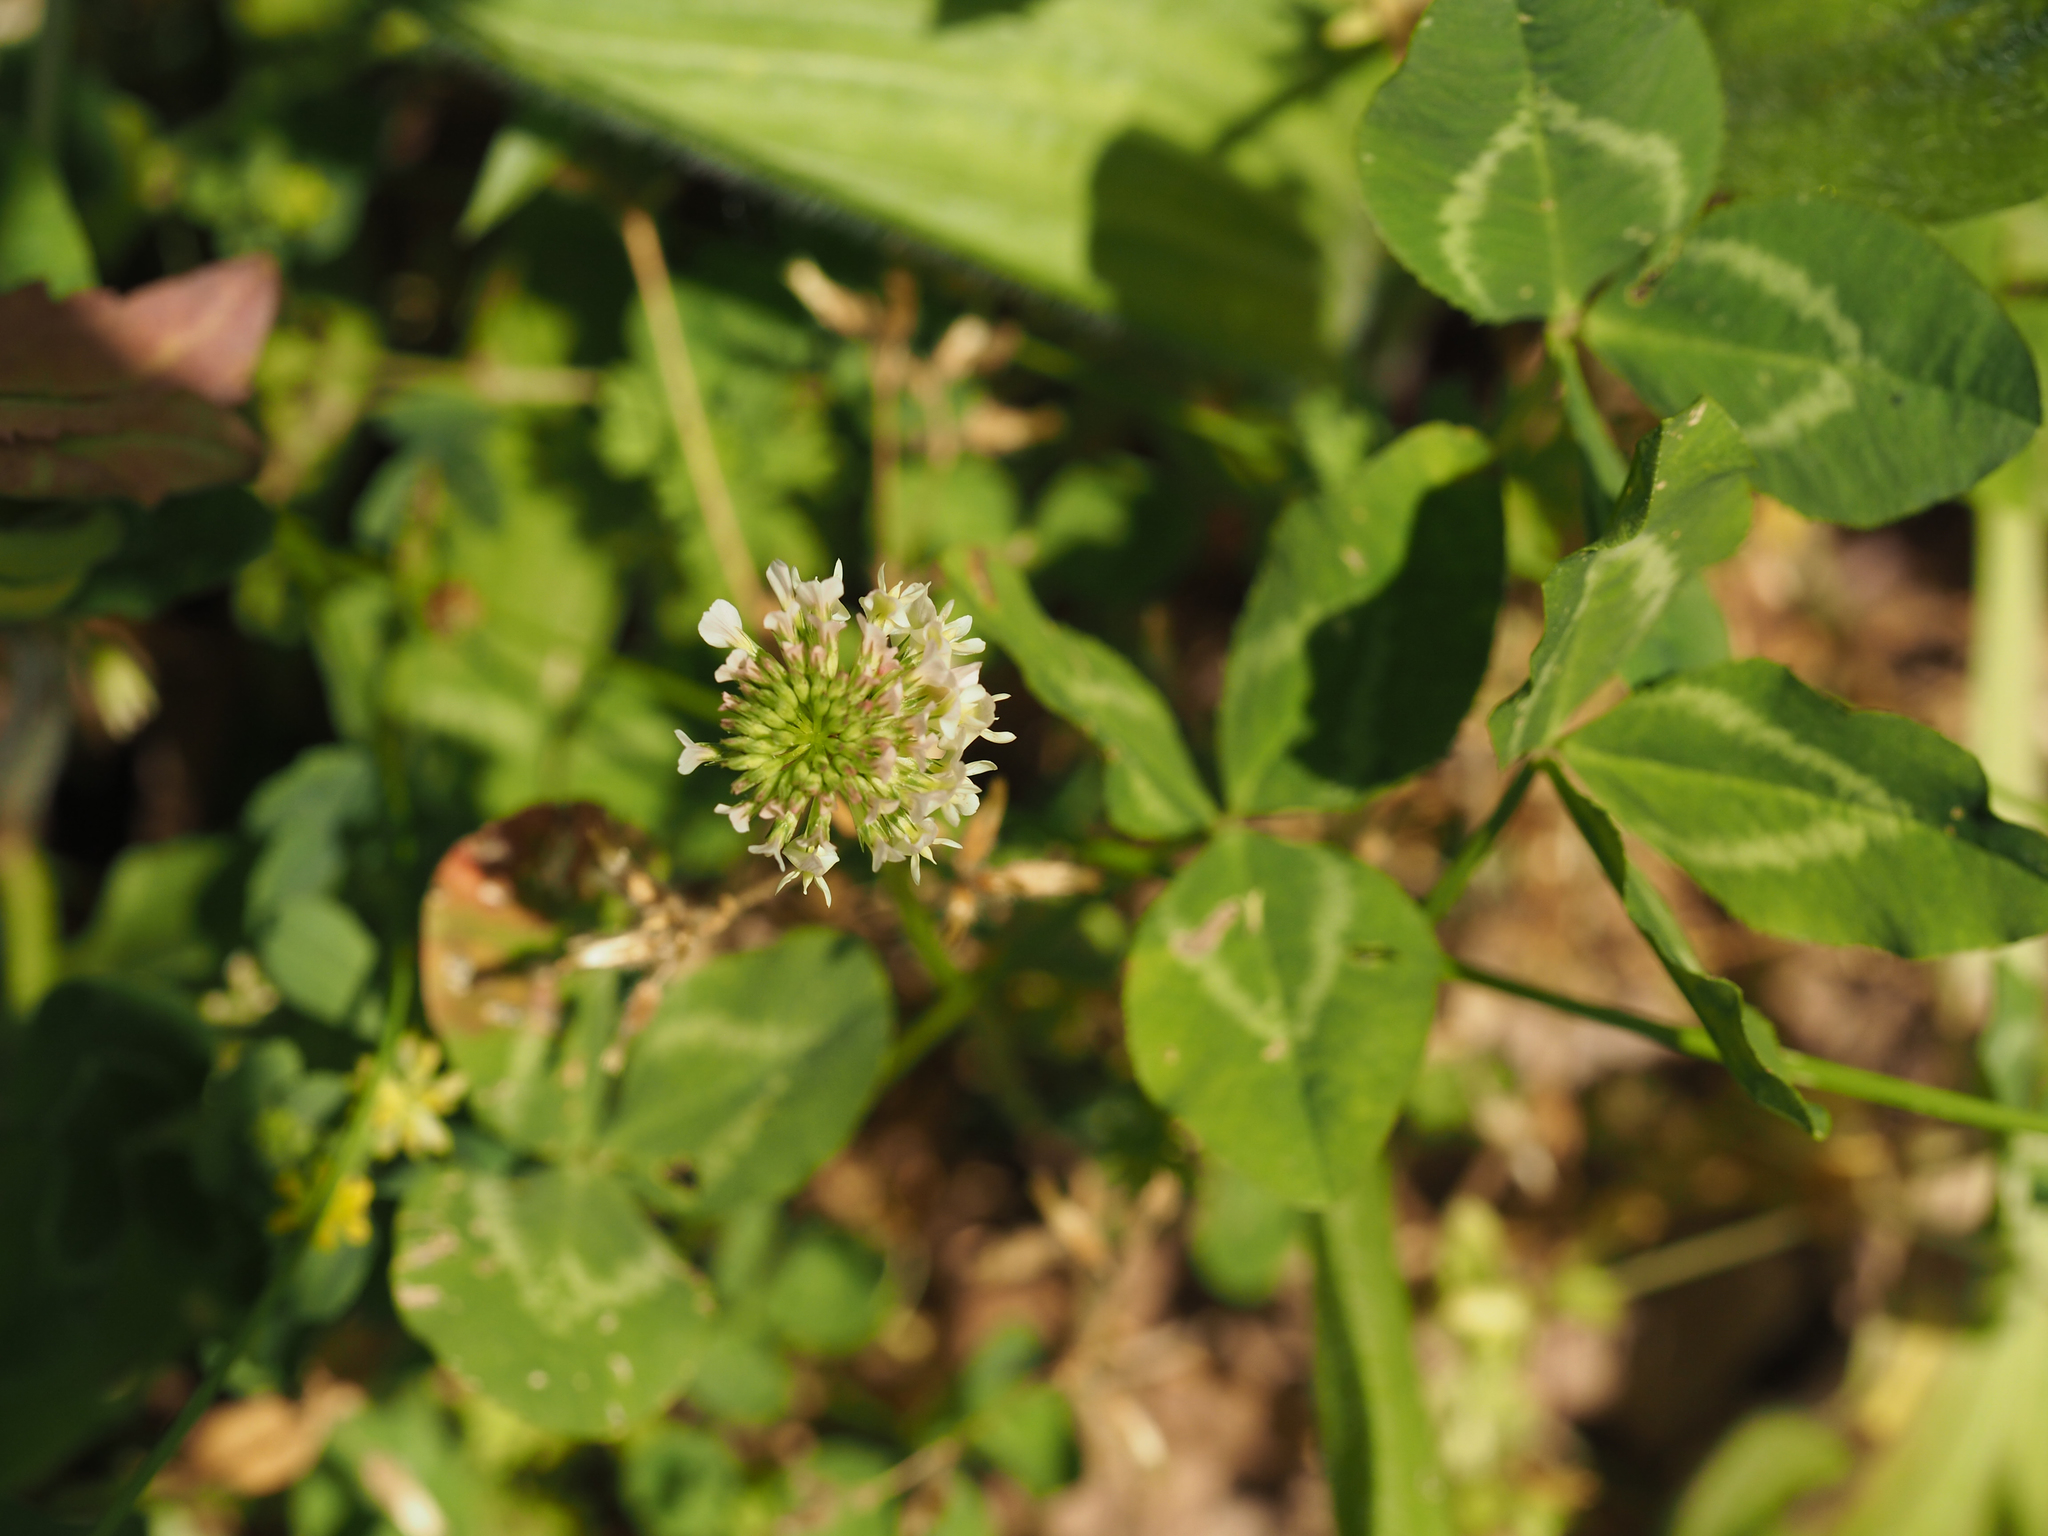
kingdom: Plantae
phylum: Tracheophyta
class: Magnoliopsida
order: Fabales
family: Fabaceae
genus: Trifolium
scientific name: Trifolium repens
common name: White clover
